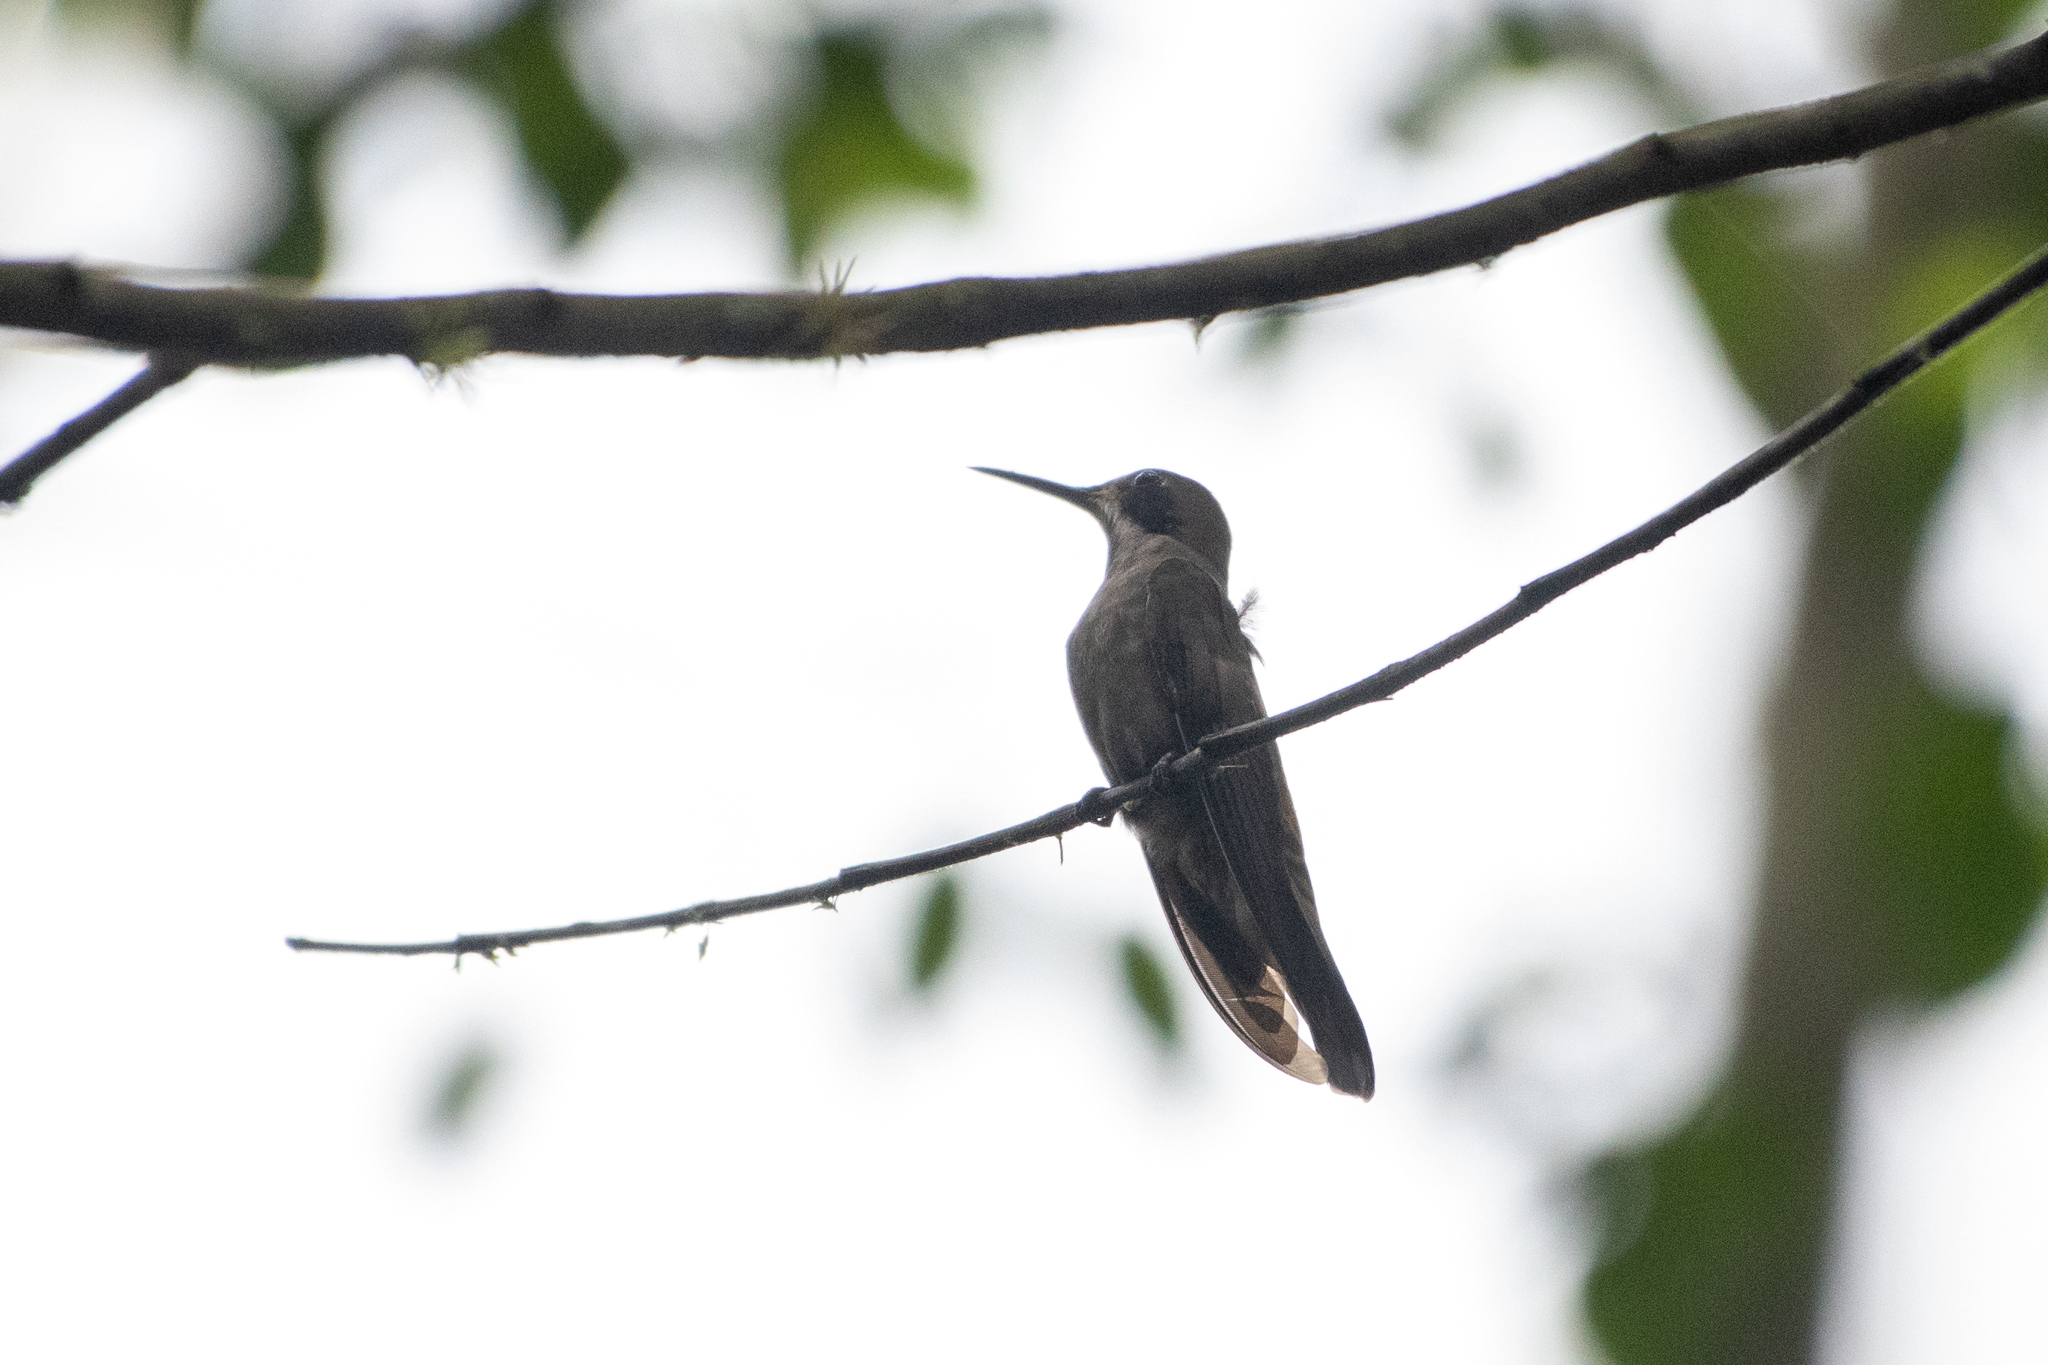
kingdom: Animalia
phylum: Chordata
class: Aves
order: Apodiformes
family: Trochilidae
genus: Colibri
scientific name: Colibri delphinae
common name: Brown violetear
